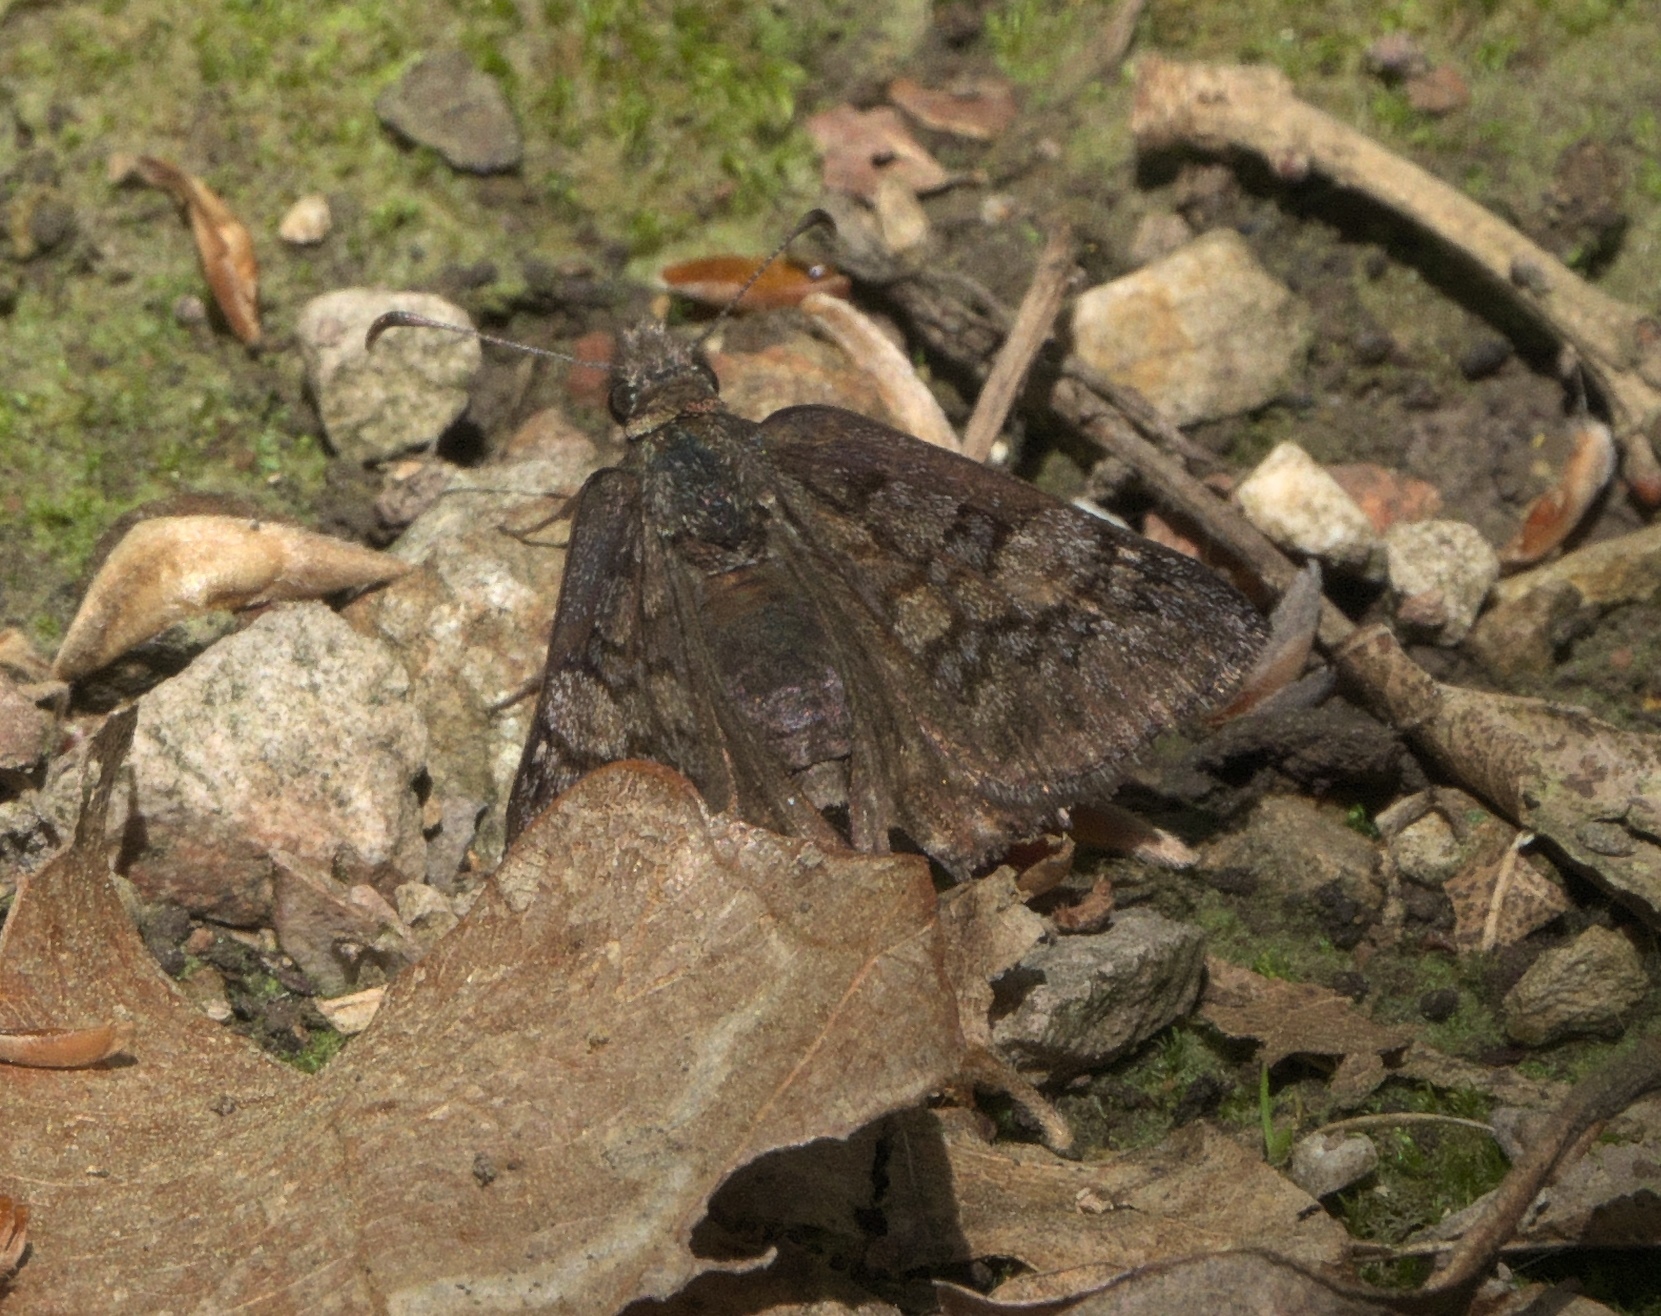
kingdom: Animalia
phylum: Arthropoda
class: Insecta
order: Lepidoptera
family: Hesperiidae
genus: Erynnis
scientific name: Erynnis brizo
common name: Sleepy duskywing
